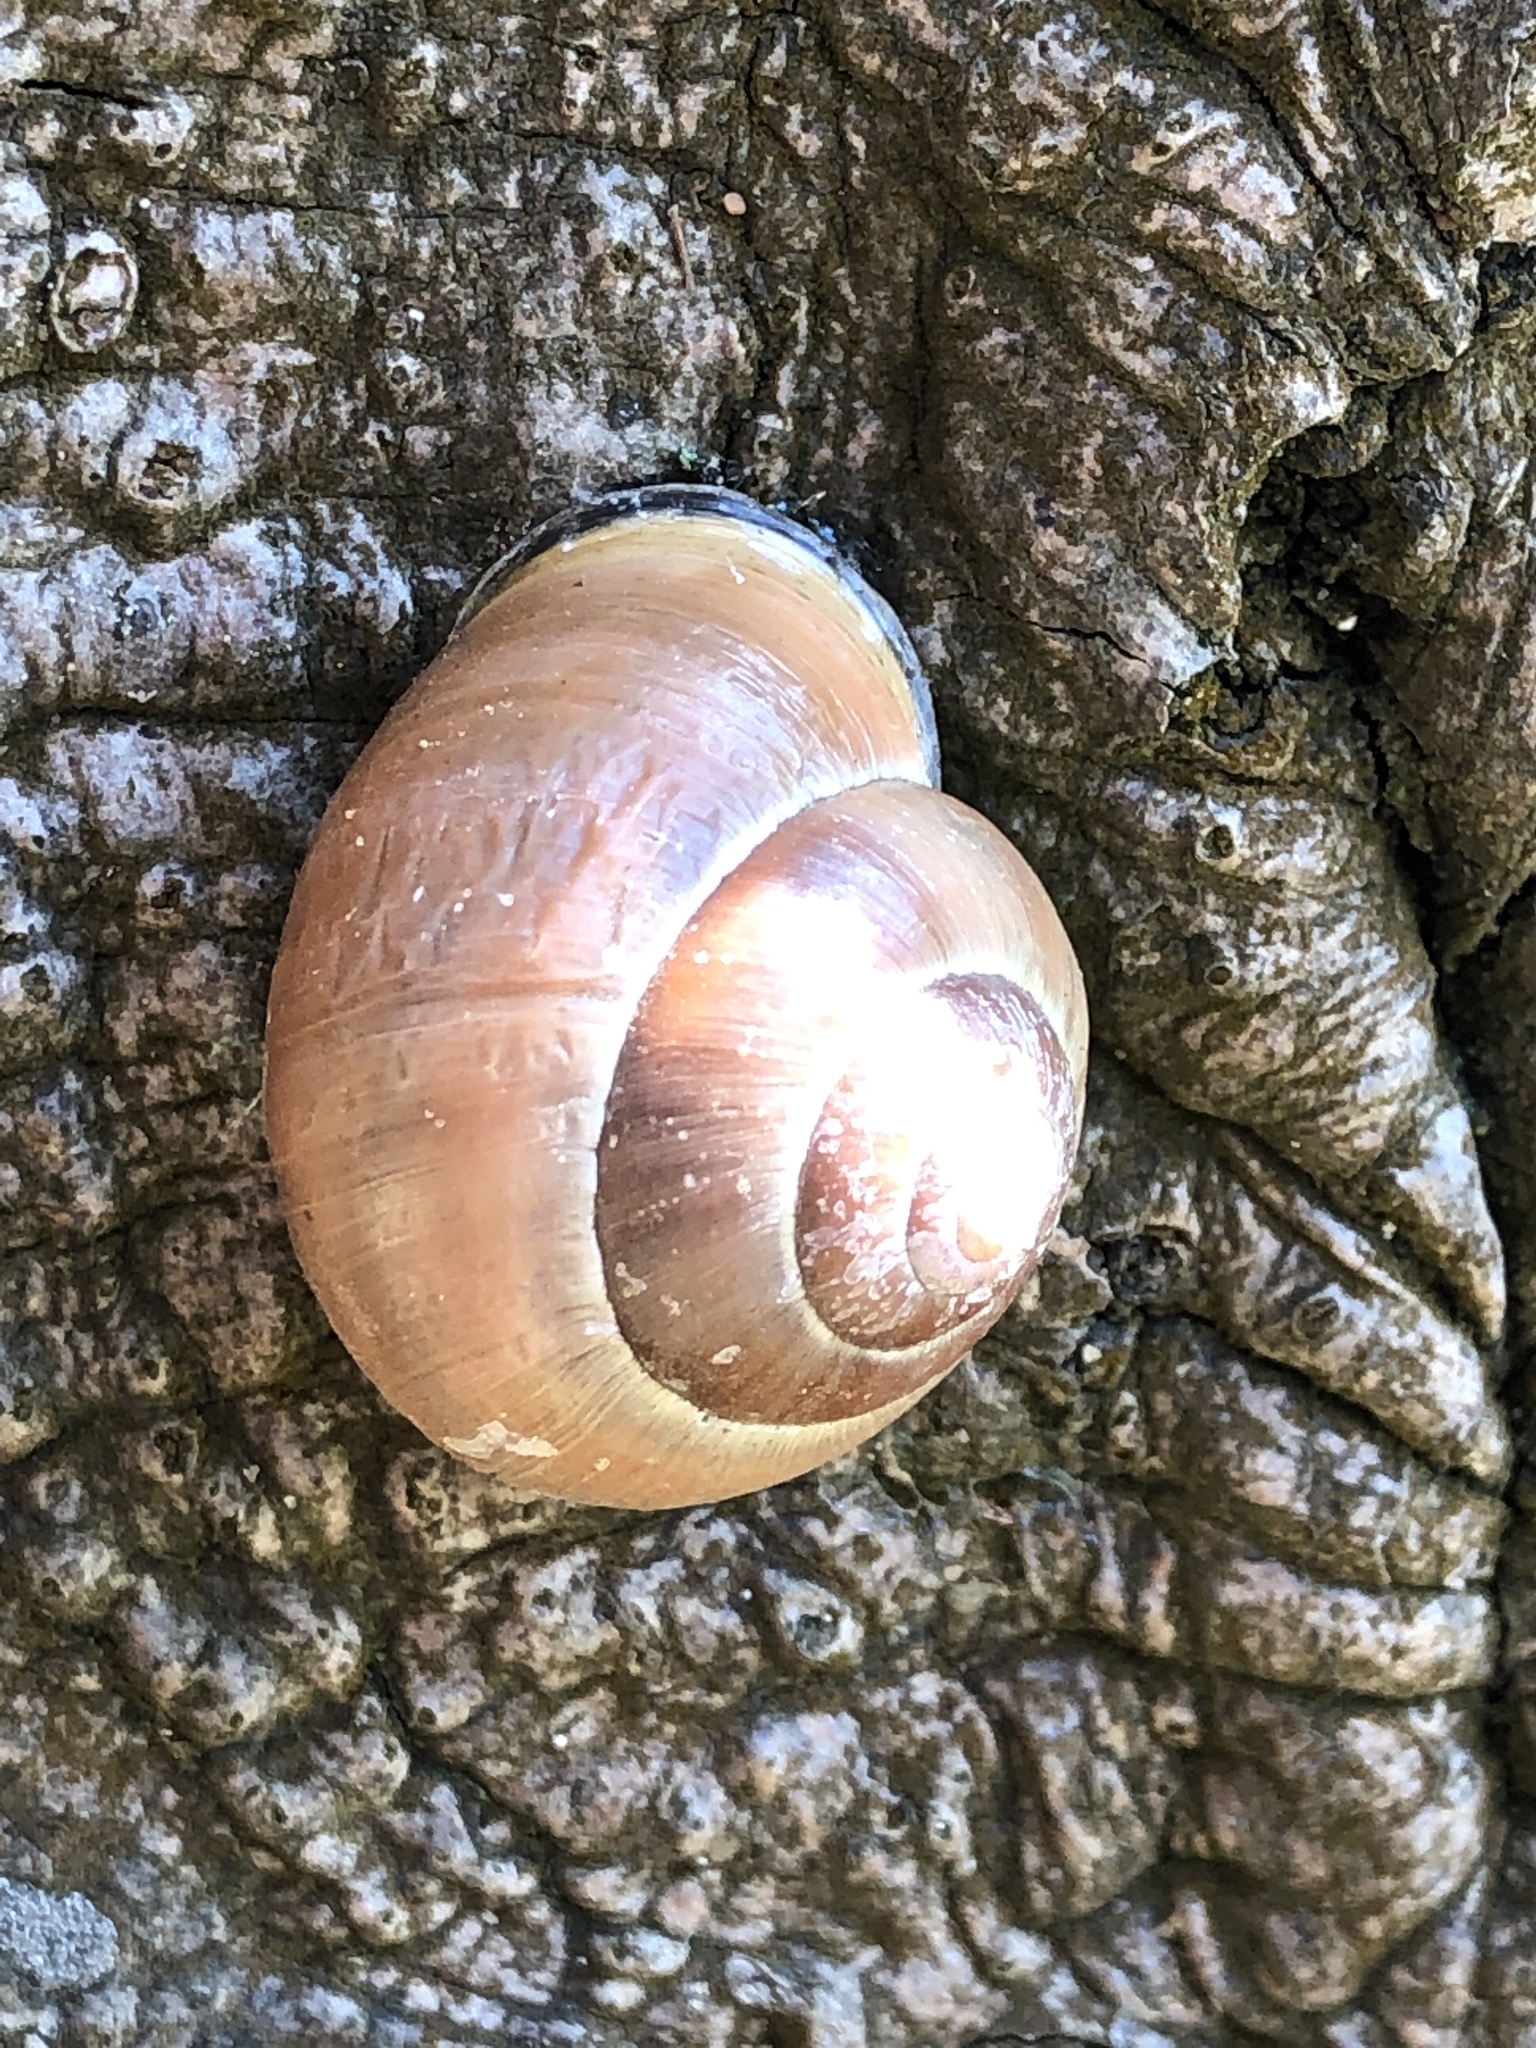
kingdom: Animalia
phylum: Mollusca
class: Gastropoda
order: Stylommatophora
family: Helicidae
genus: Cepaea
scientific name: Cepaea nemoralis
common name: Grovesnail
